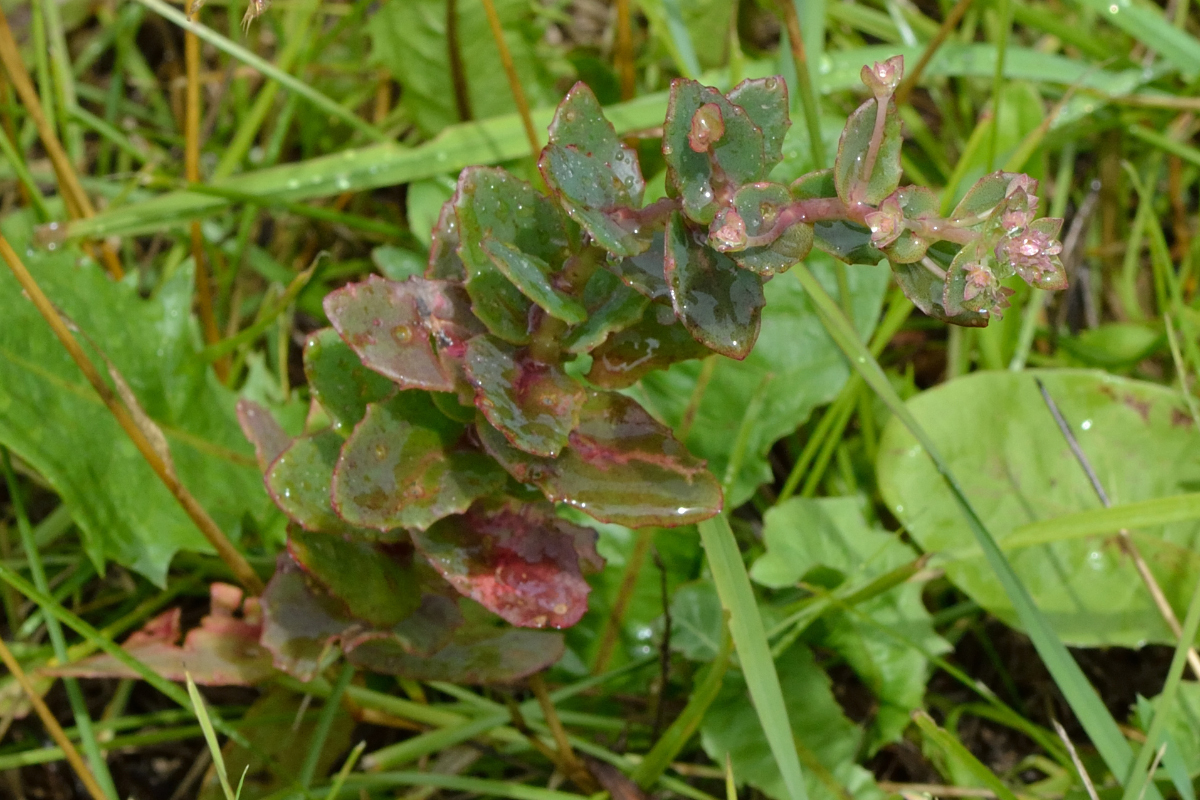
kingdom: Plantae
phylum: Tracheophyta
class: Magnoliopsida
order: Saxifragales
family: Crassulaceae
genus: Hylotelephium
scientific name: Hylotelephium maximum
